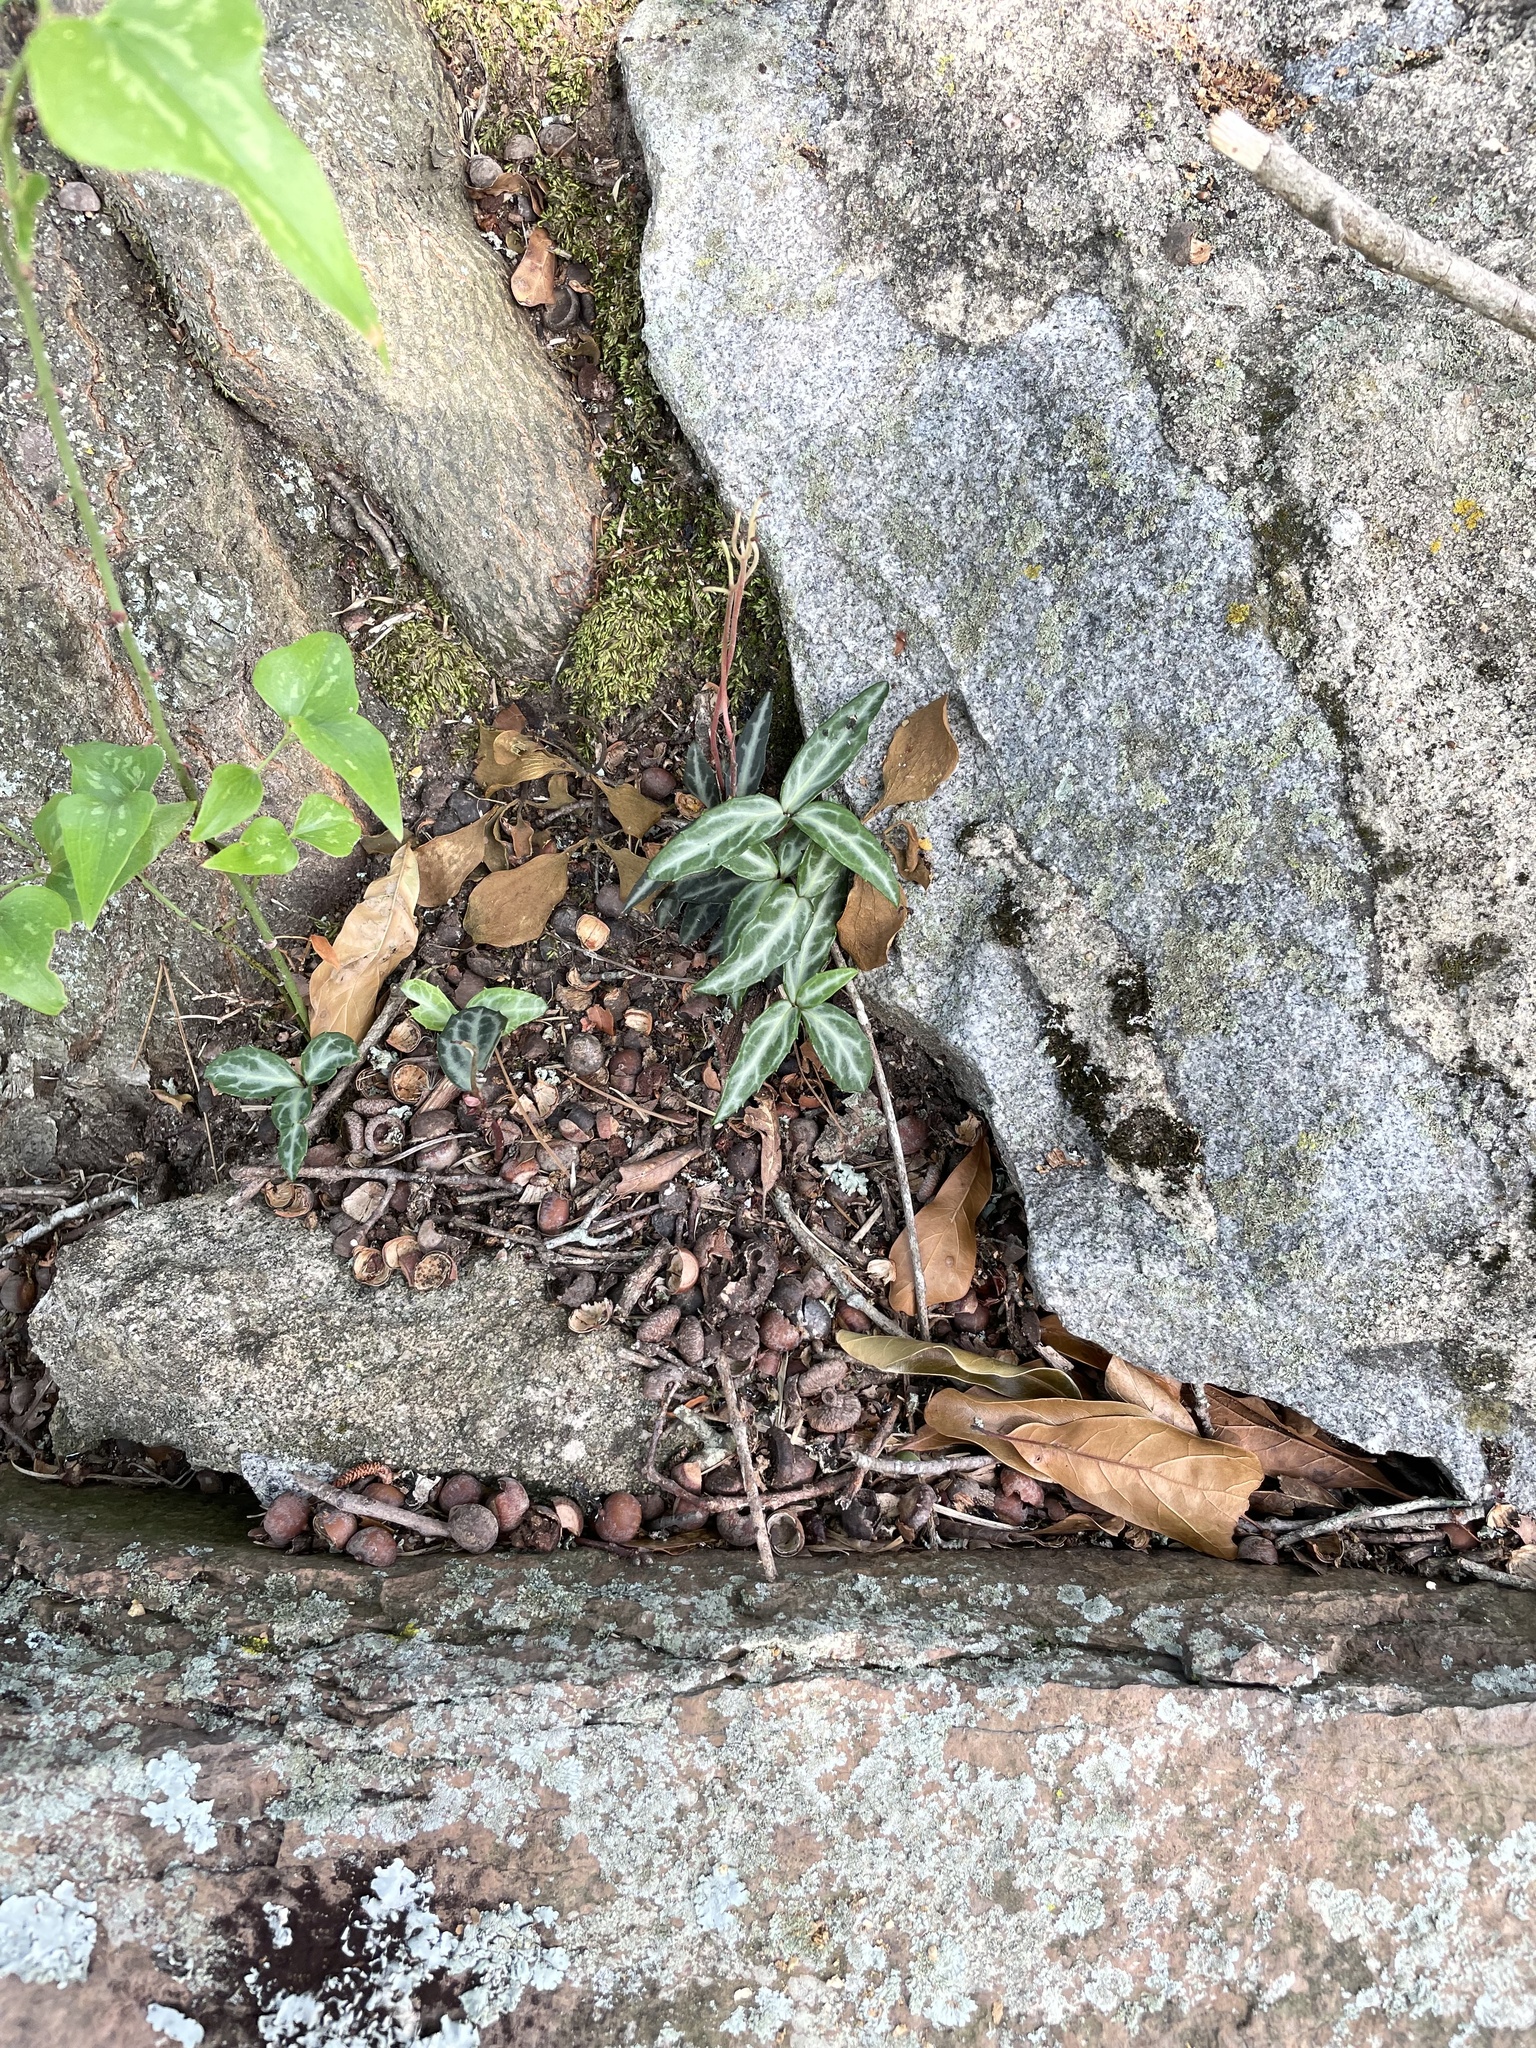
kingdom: Plantae
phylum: Tracheophyta
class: Magnoliopsida
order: Ericales
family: Ericaceae
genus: Chimaphila
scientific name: Chimaphila maculata
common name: Spotted pipsissewa
